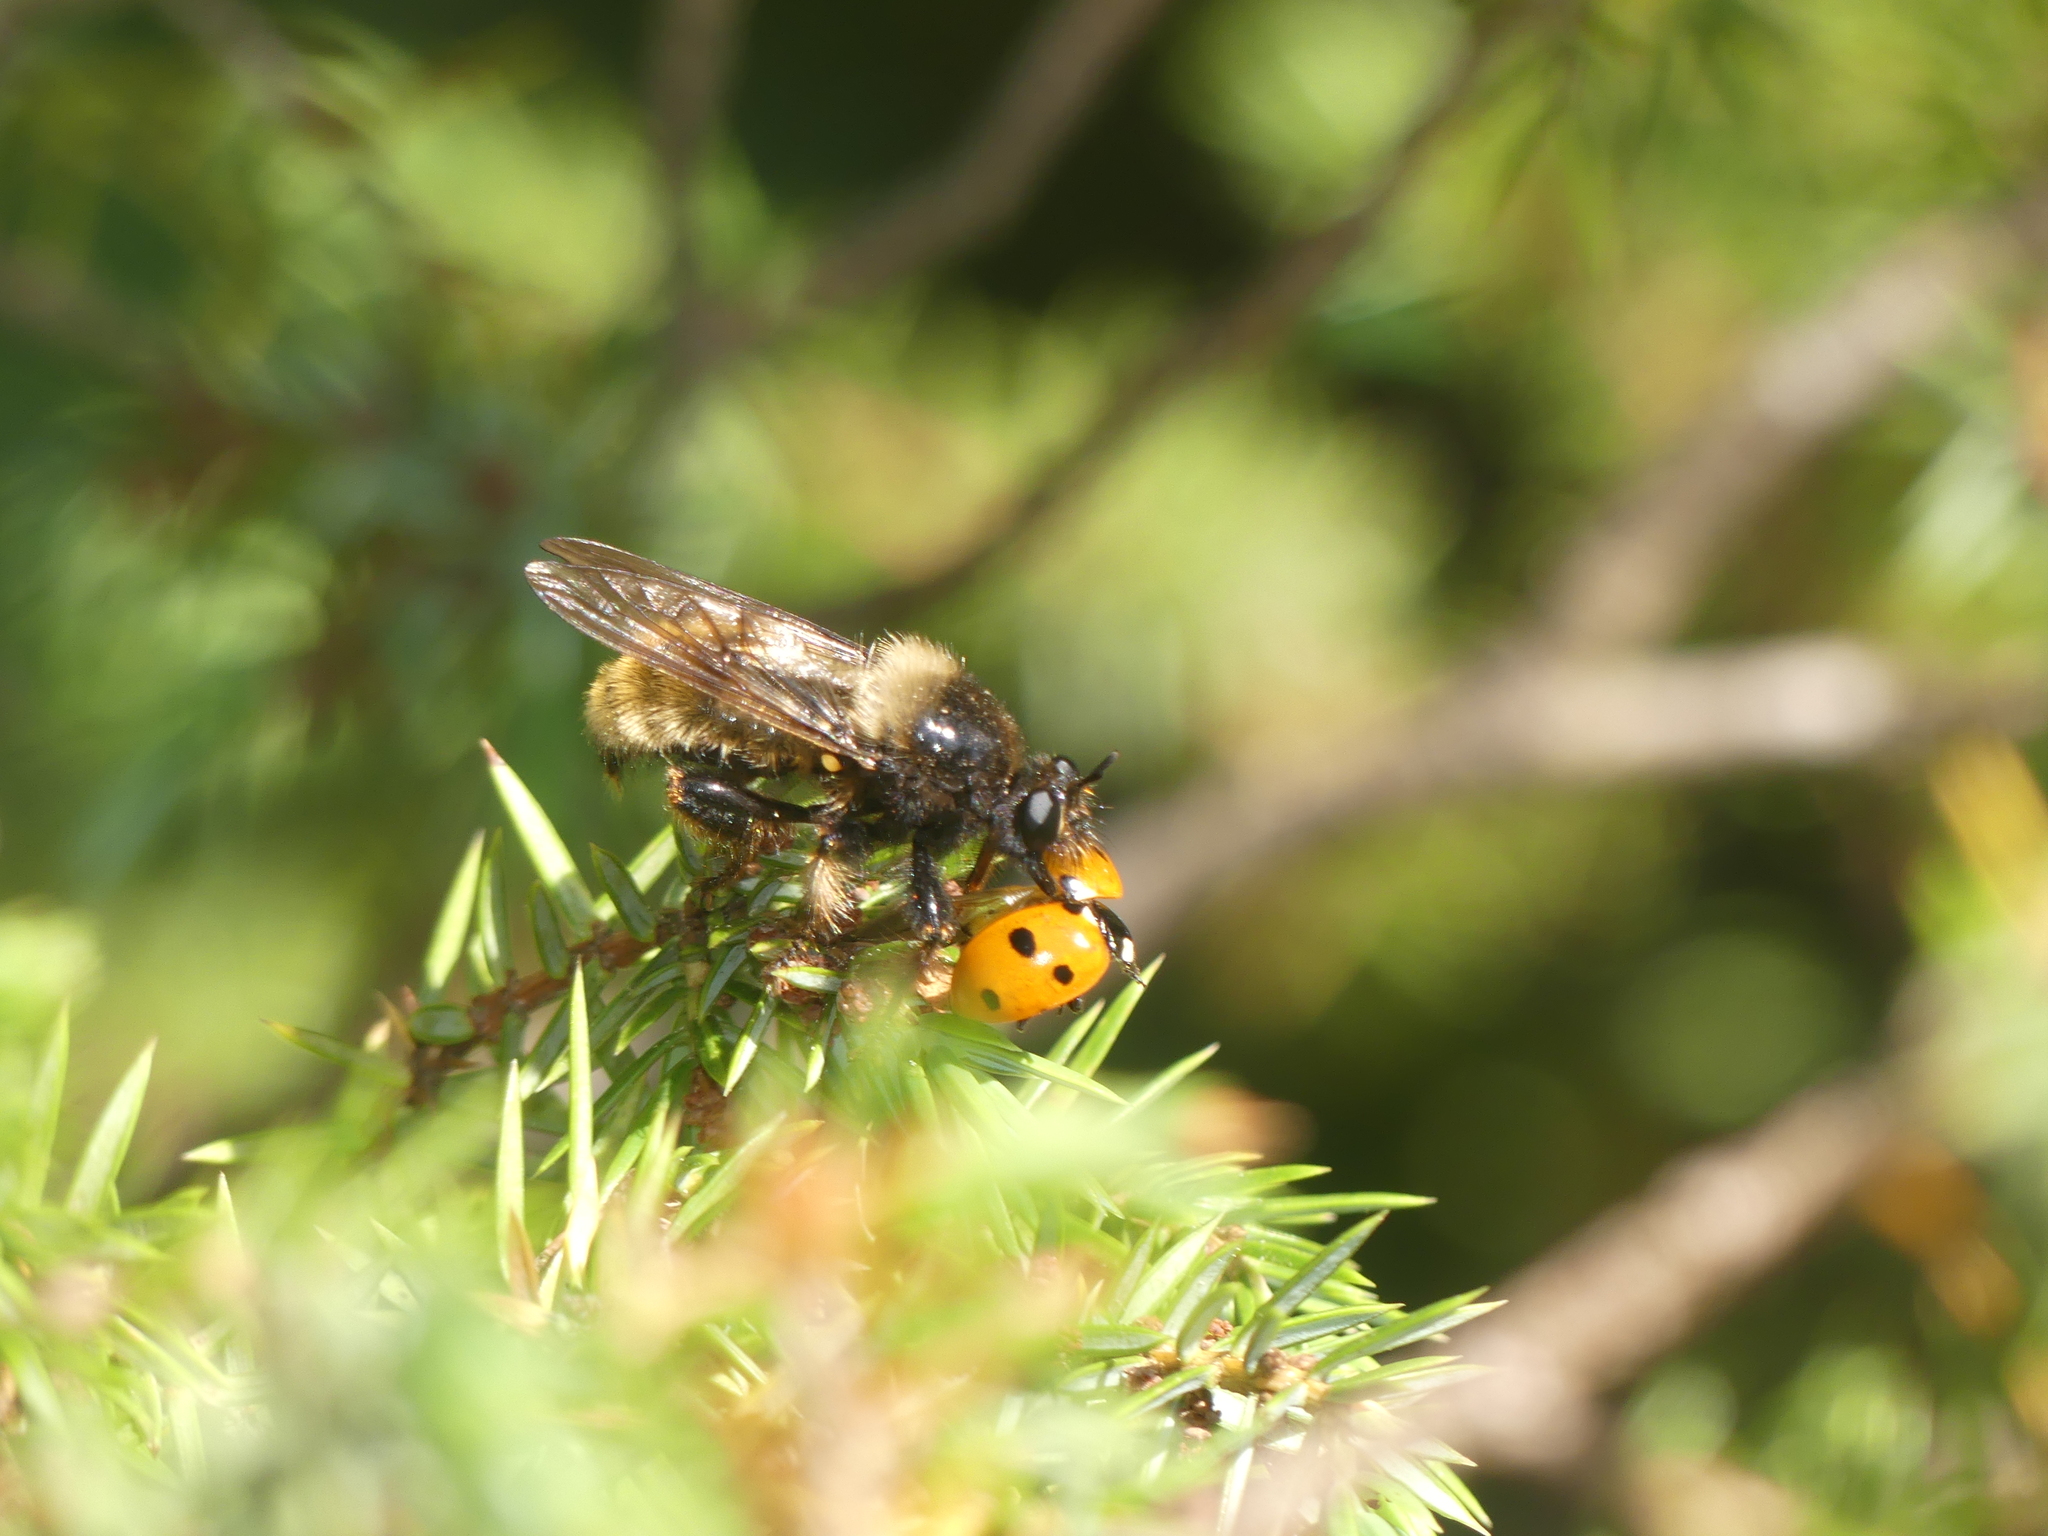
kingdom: Animalia
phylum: Arthropoda
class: Insecta
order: Coleoptera
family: Coccinellidae
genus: Coccinella
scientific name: Coccinella septempunctata
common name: Sevenspotted lady beetle
